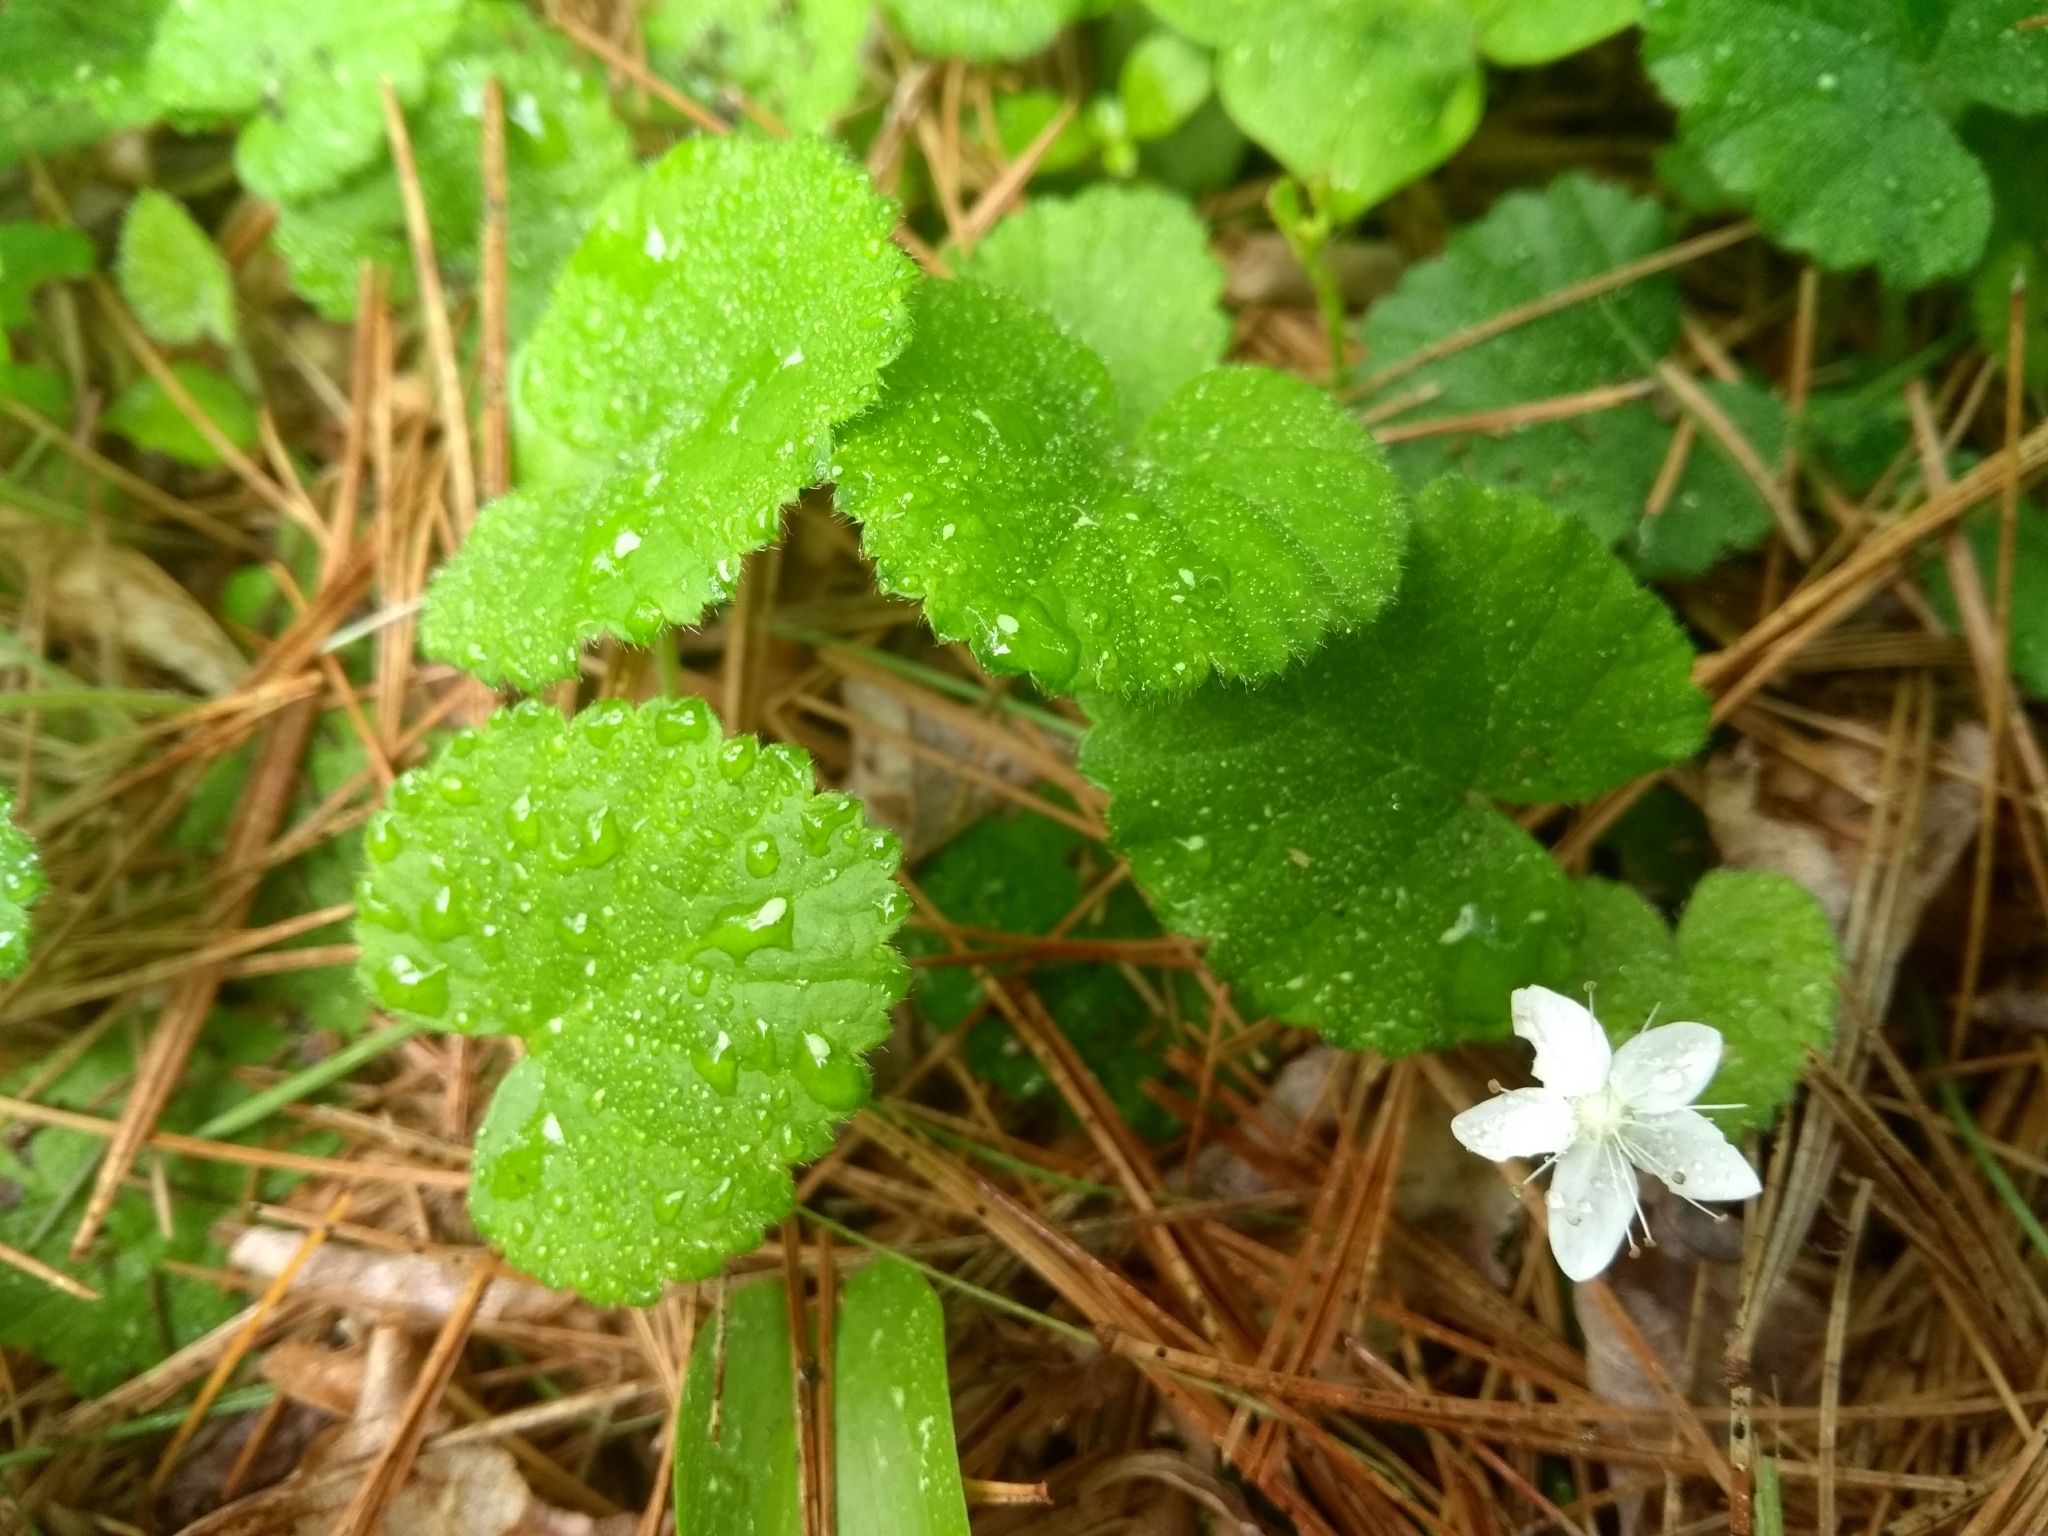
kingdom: Plantae
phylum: Tracheophyta
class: Magnoliopsida
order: Rosales
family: Rosaceae
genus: Dalibarda
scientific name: Dalibarda repens
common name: Dewdrop
